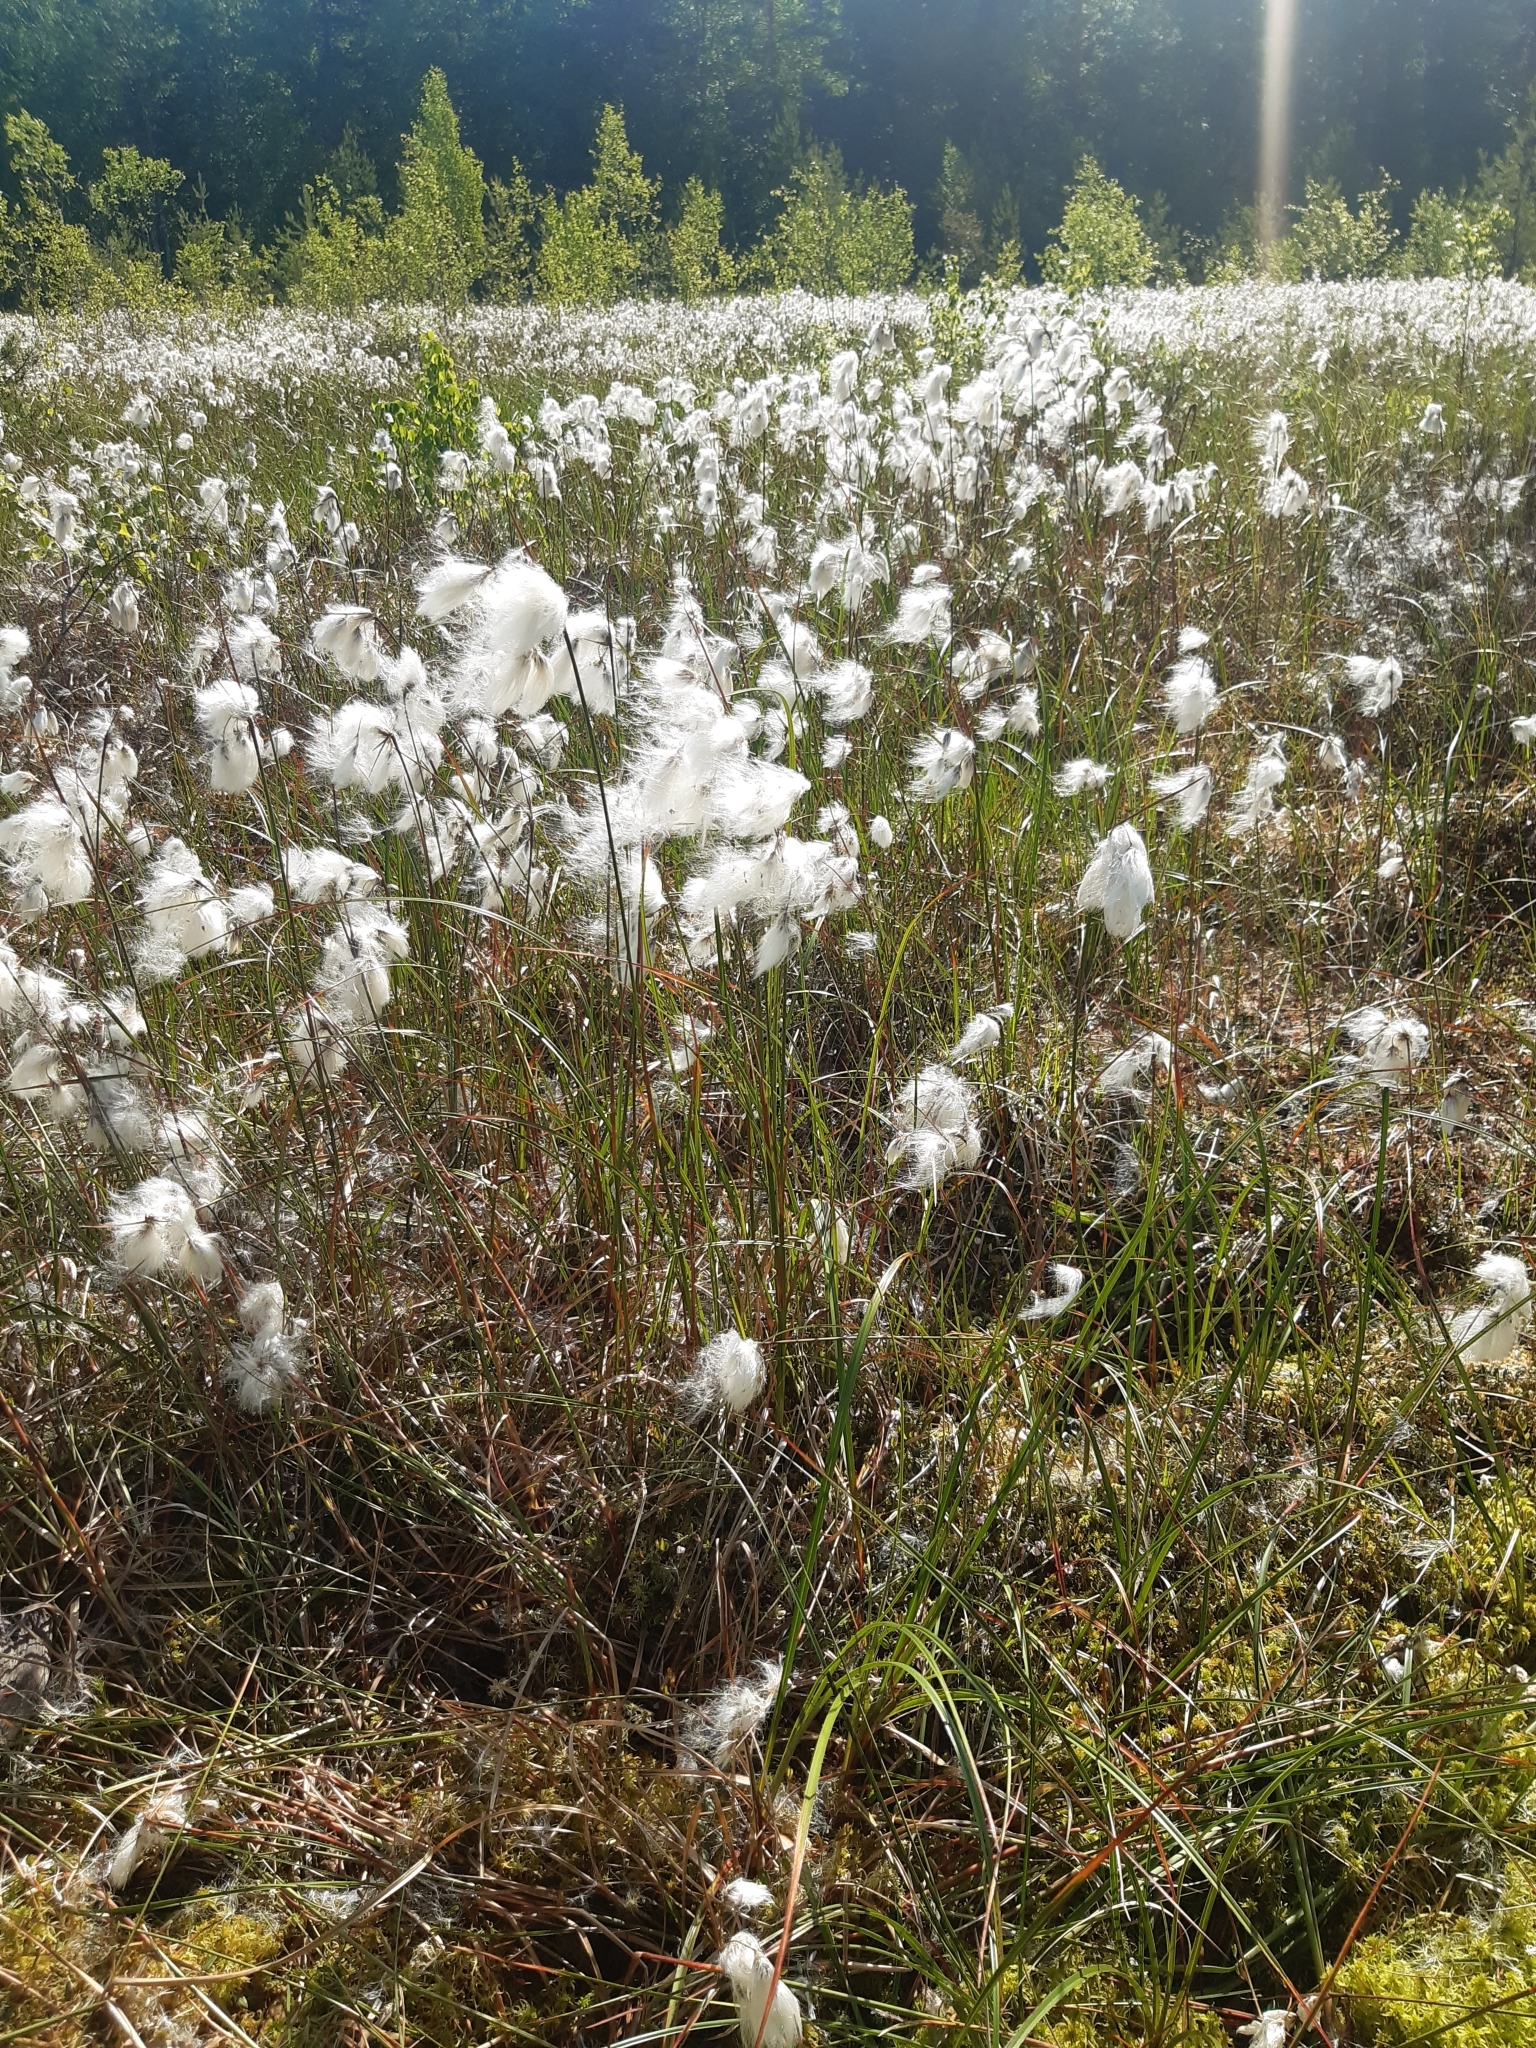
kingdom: Plantae
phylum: Tracheophyta
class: Liliopsida
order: Poales
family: Cyperaceae
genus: Eriophorum
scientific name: Eriophorum angustifolium
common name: Common cottongrass
